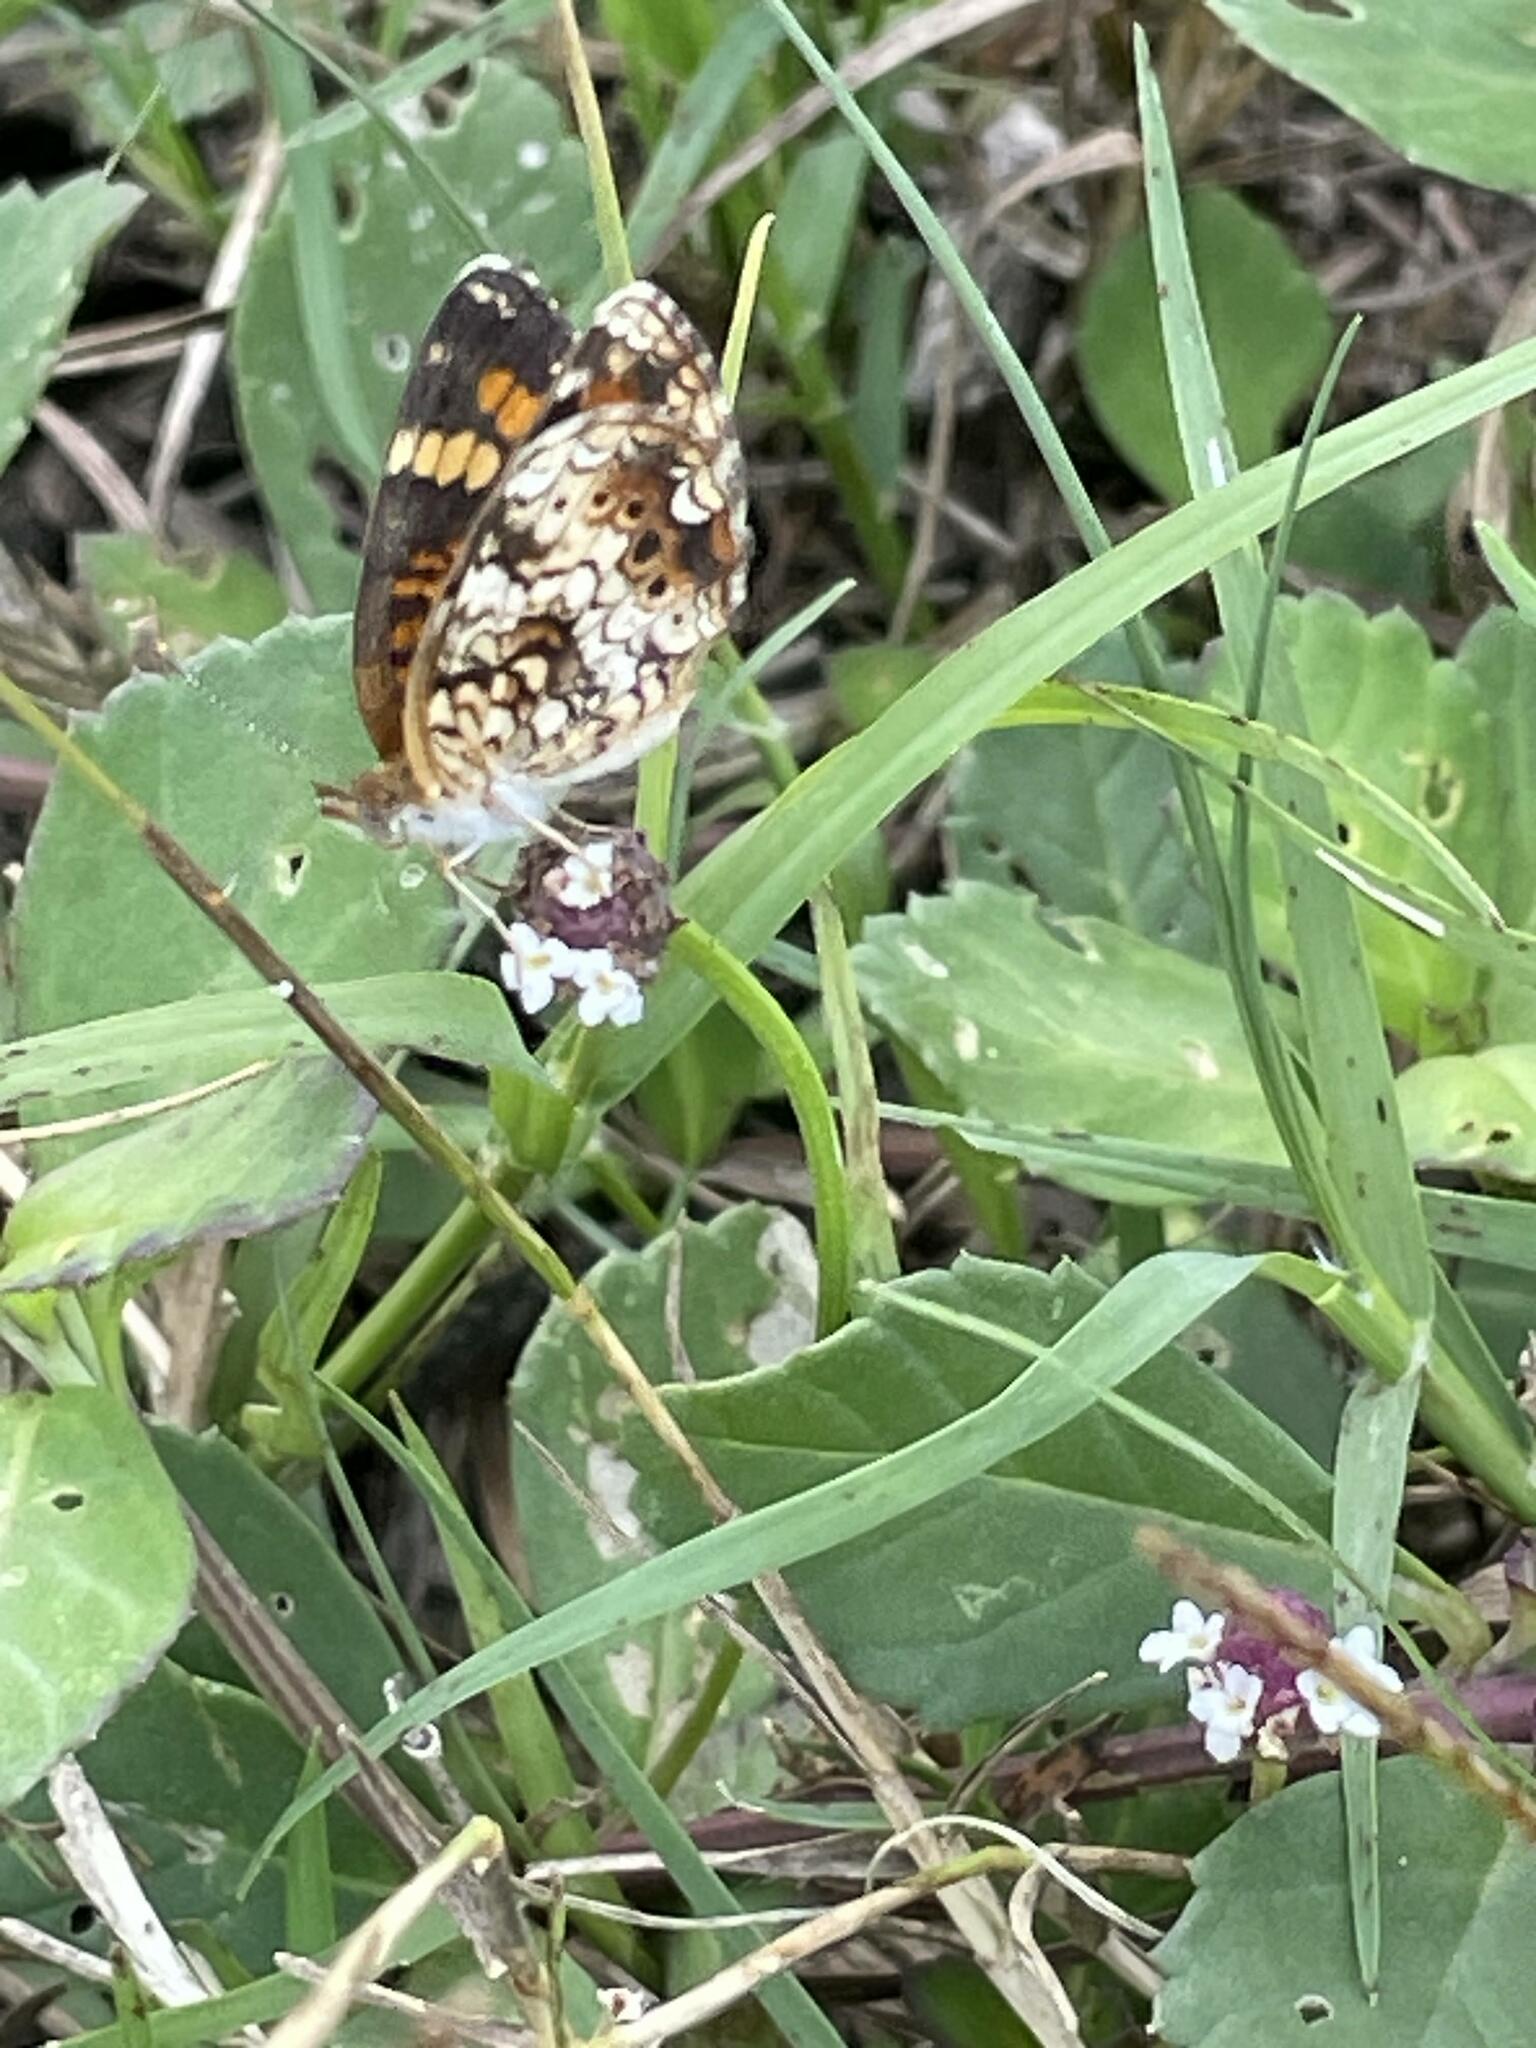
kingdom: Animalia
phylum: Arthropoda
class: Insecta
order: Lepidoptera
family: Nymphalidae
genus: Phyciodes
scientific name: Phyciodes phaon
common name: Phaon crescent
